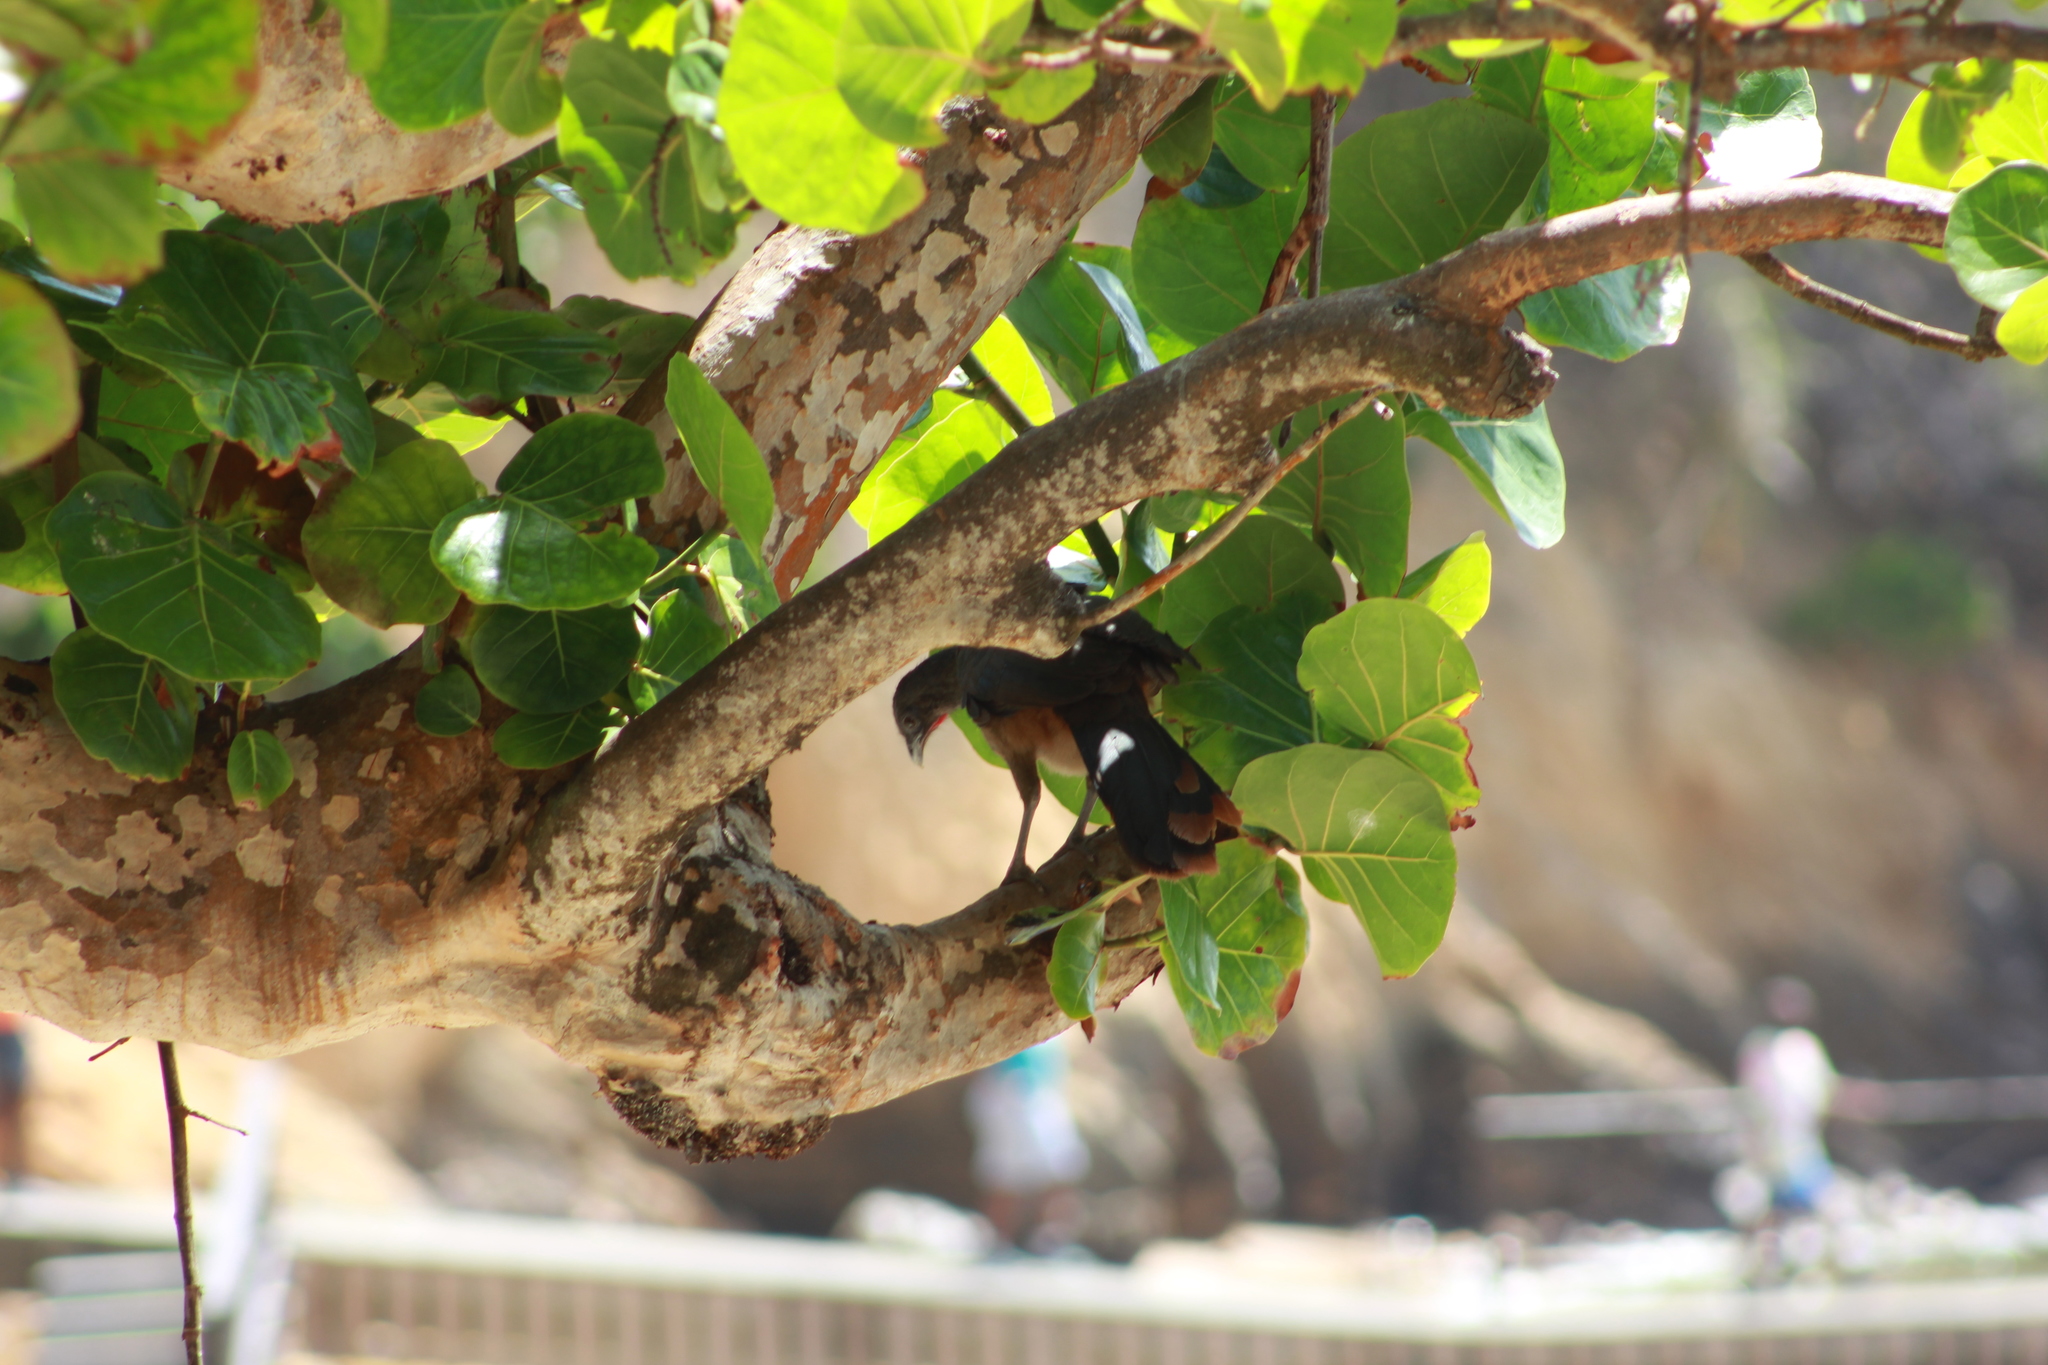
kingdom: Animalia
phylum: Chordata
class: Aves
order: Galliformes
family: Cracidae
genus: Ortalis
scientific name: Ortalis ruficauda
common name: Rufous-vented chachalaca
